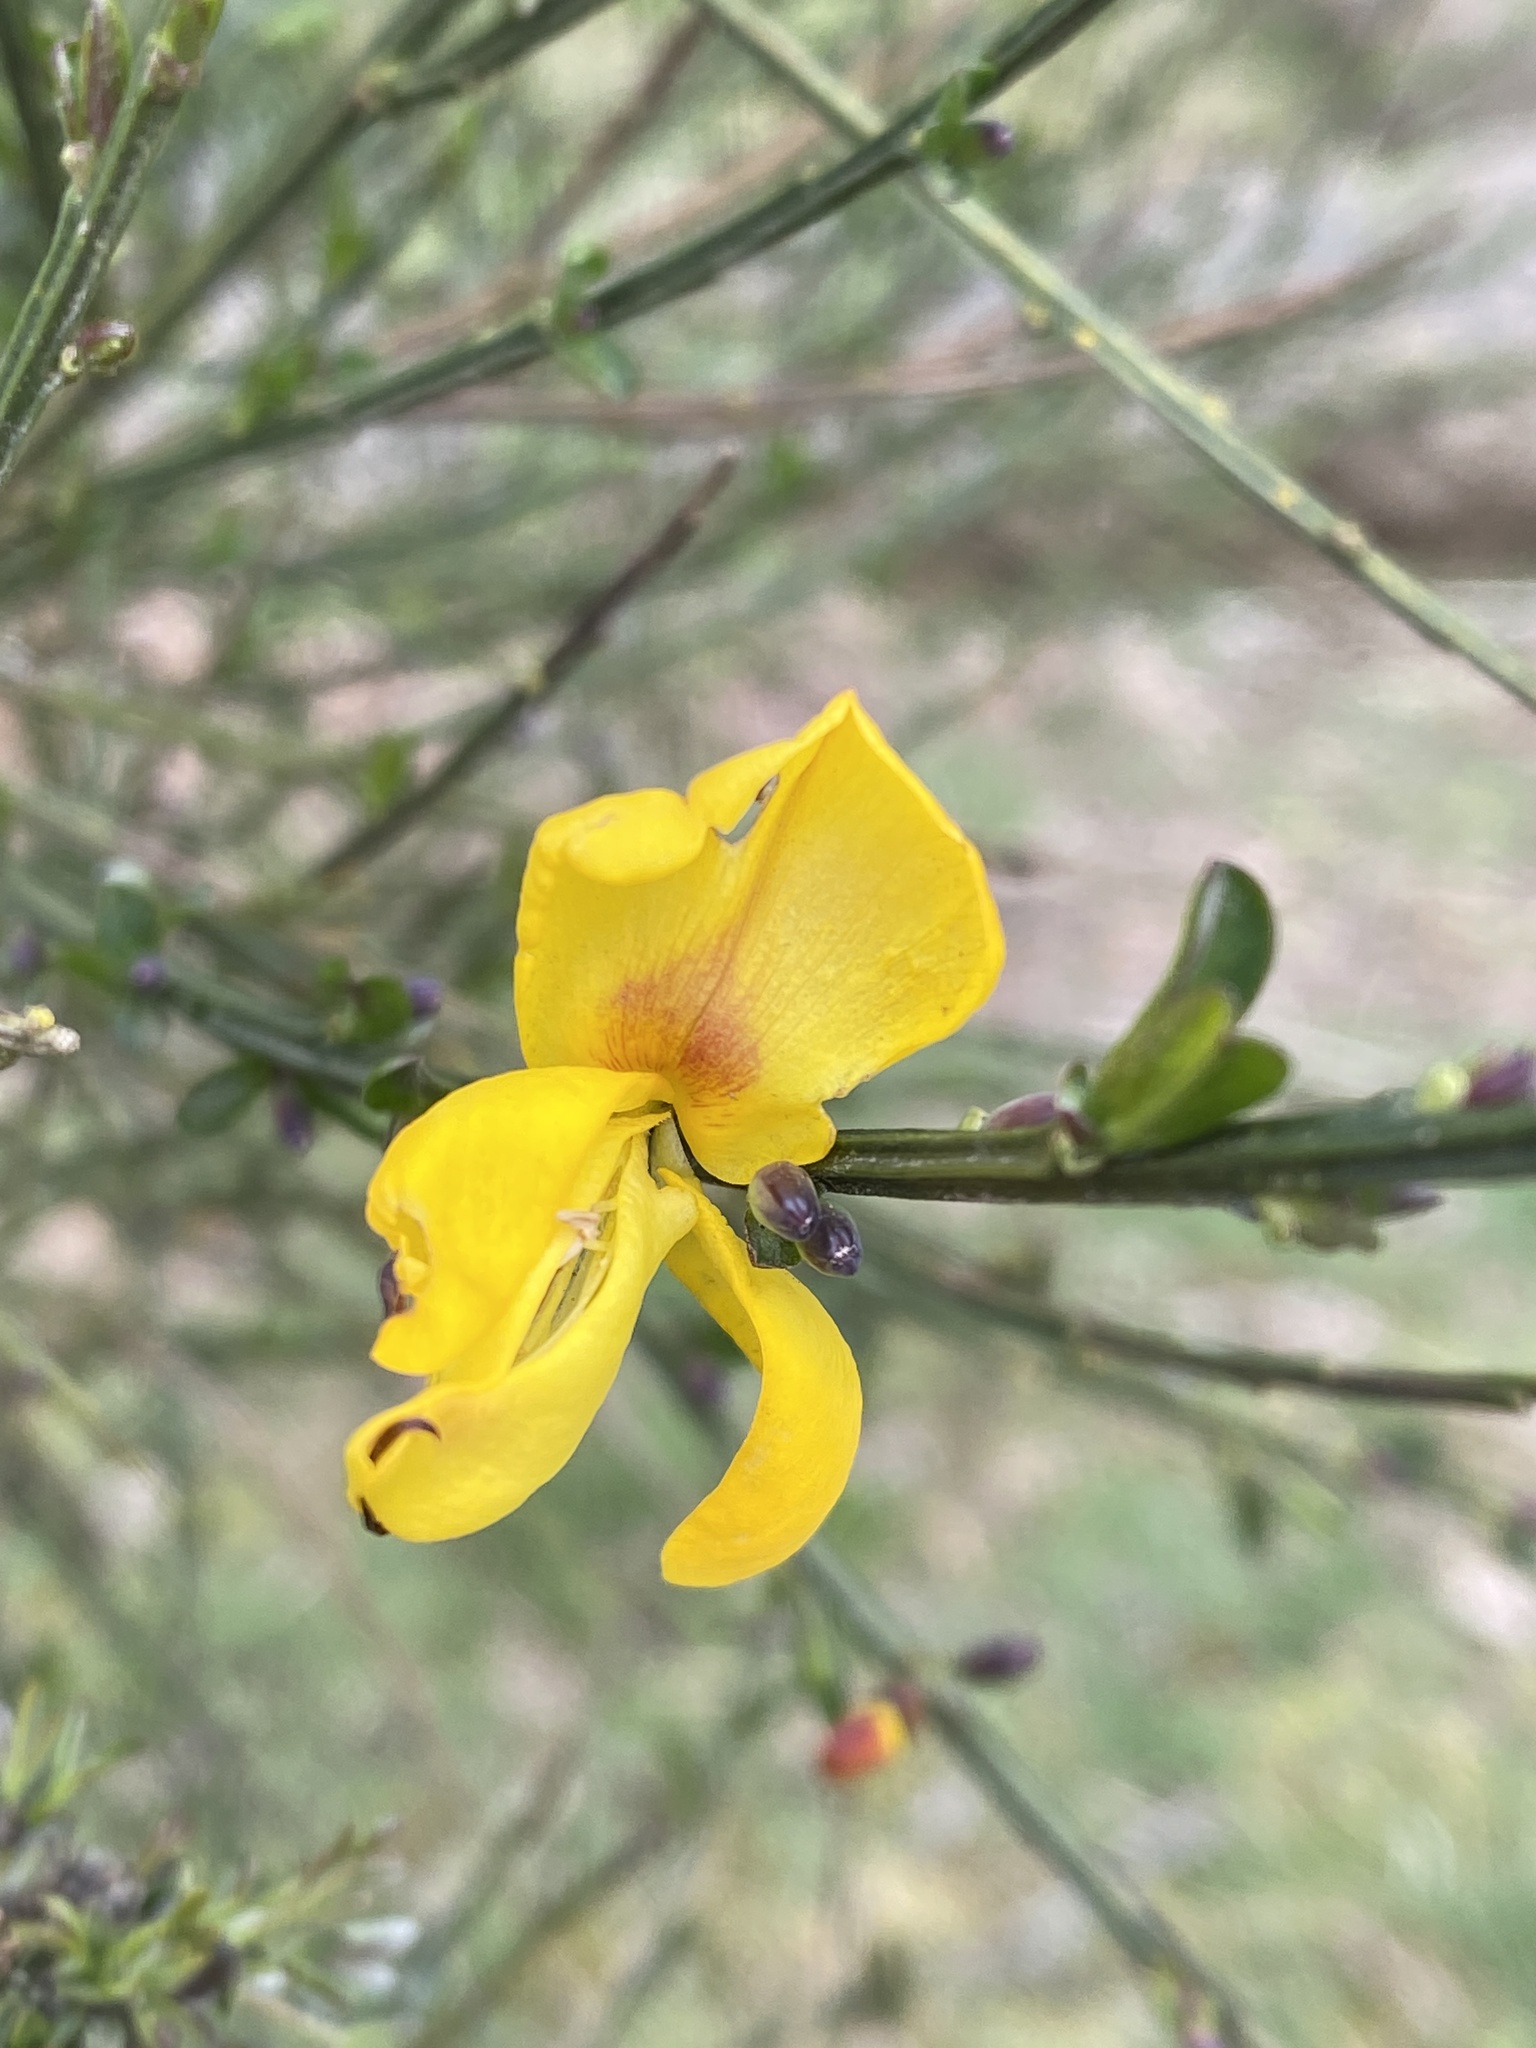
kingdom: Plantae
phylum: Tracheophyta
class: Magnoliopsida
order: Fabales
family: Fabaceae
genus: Cytisus
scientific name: Cytisus scoparius
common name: Scotch broom
